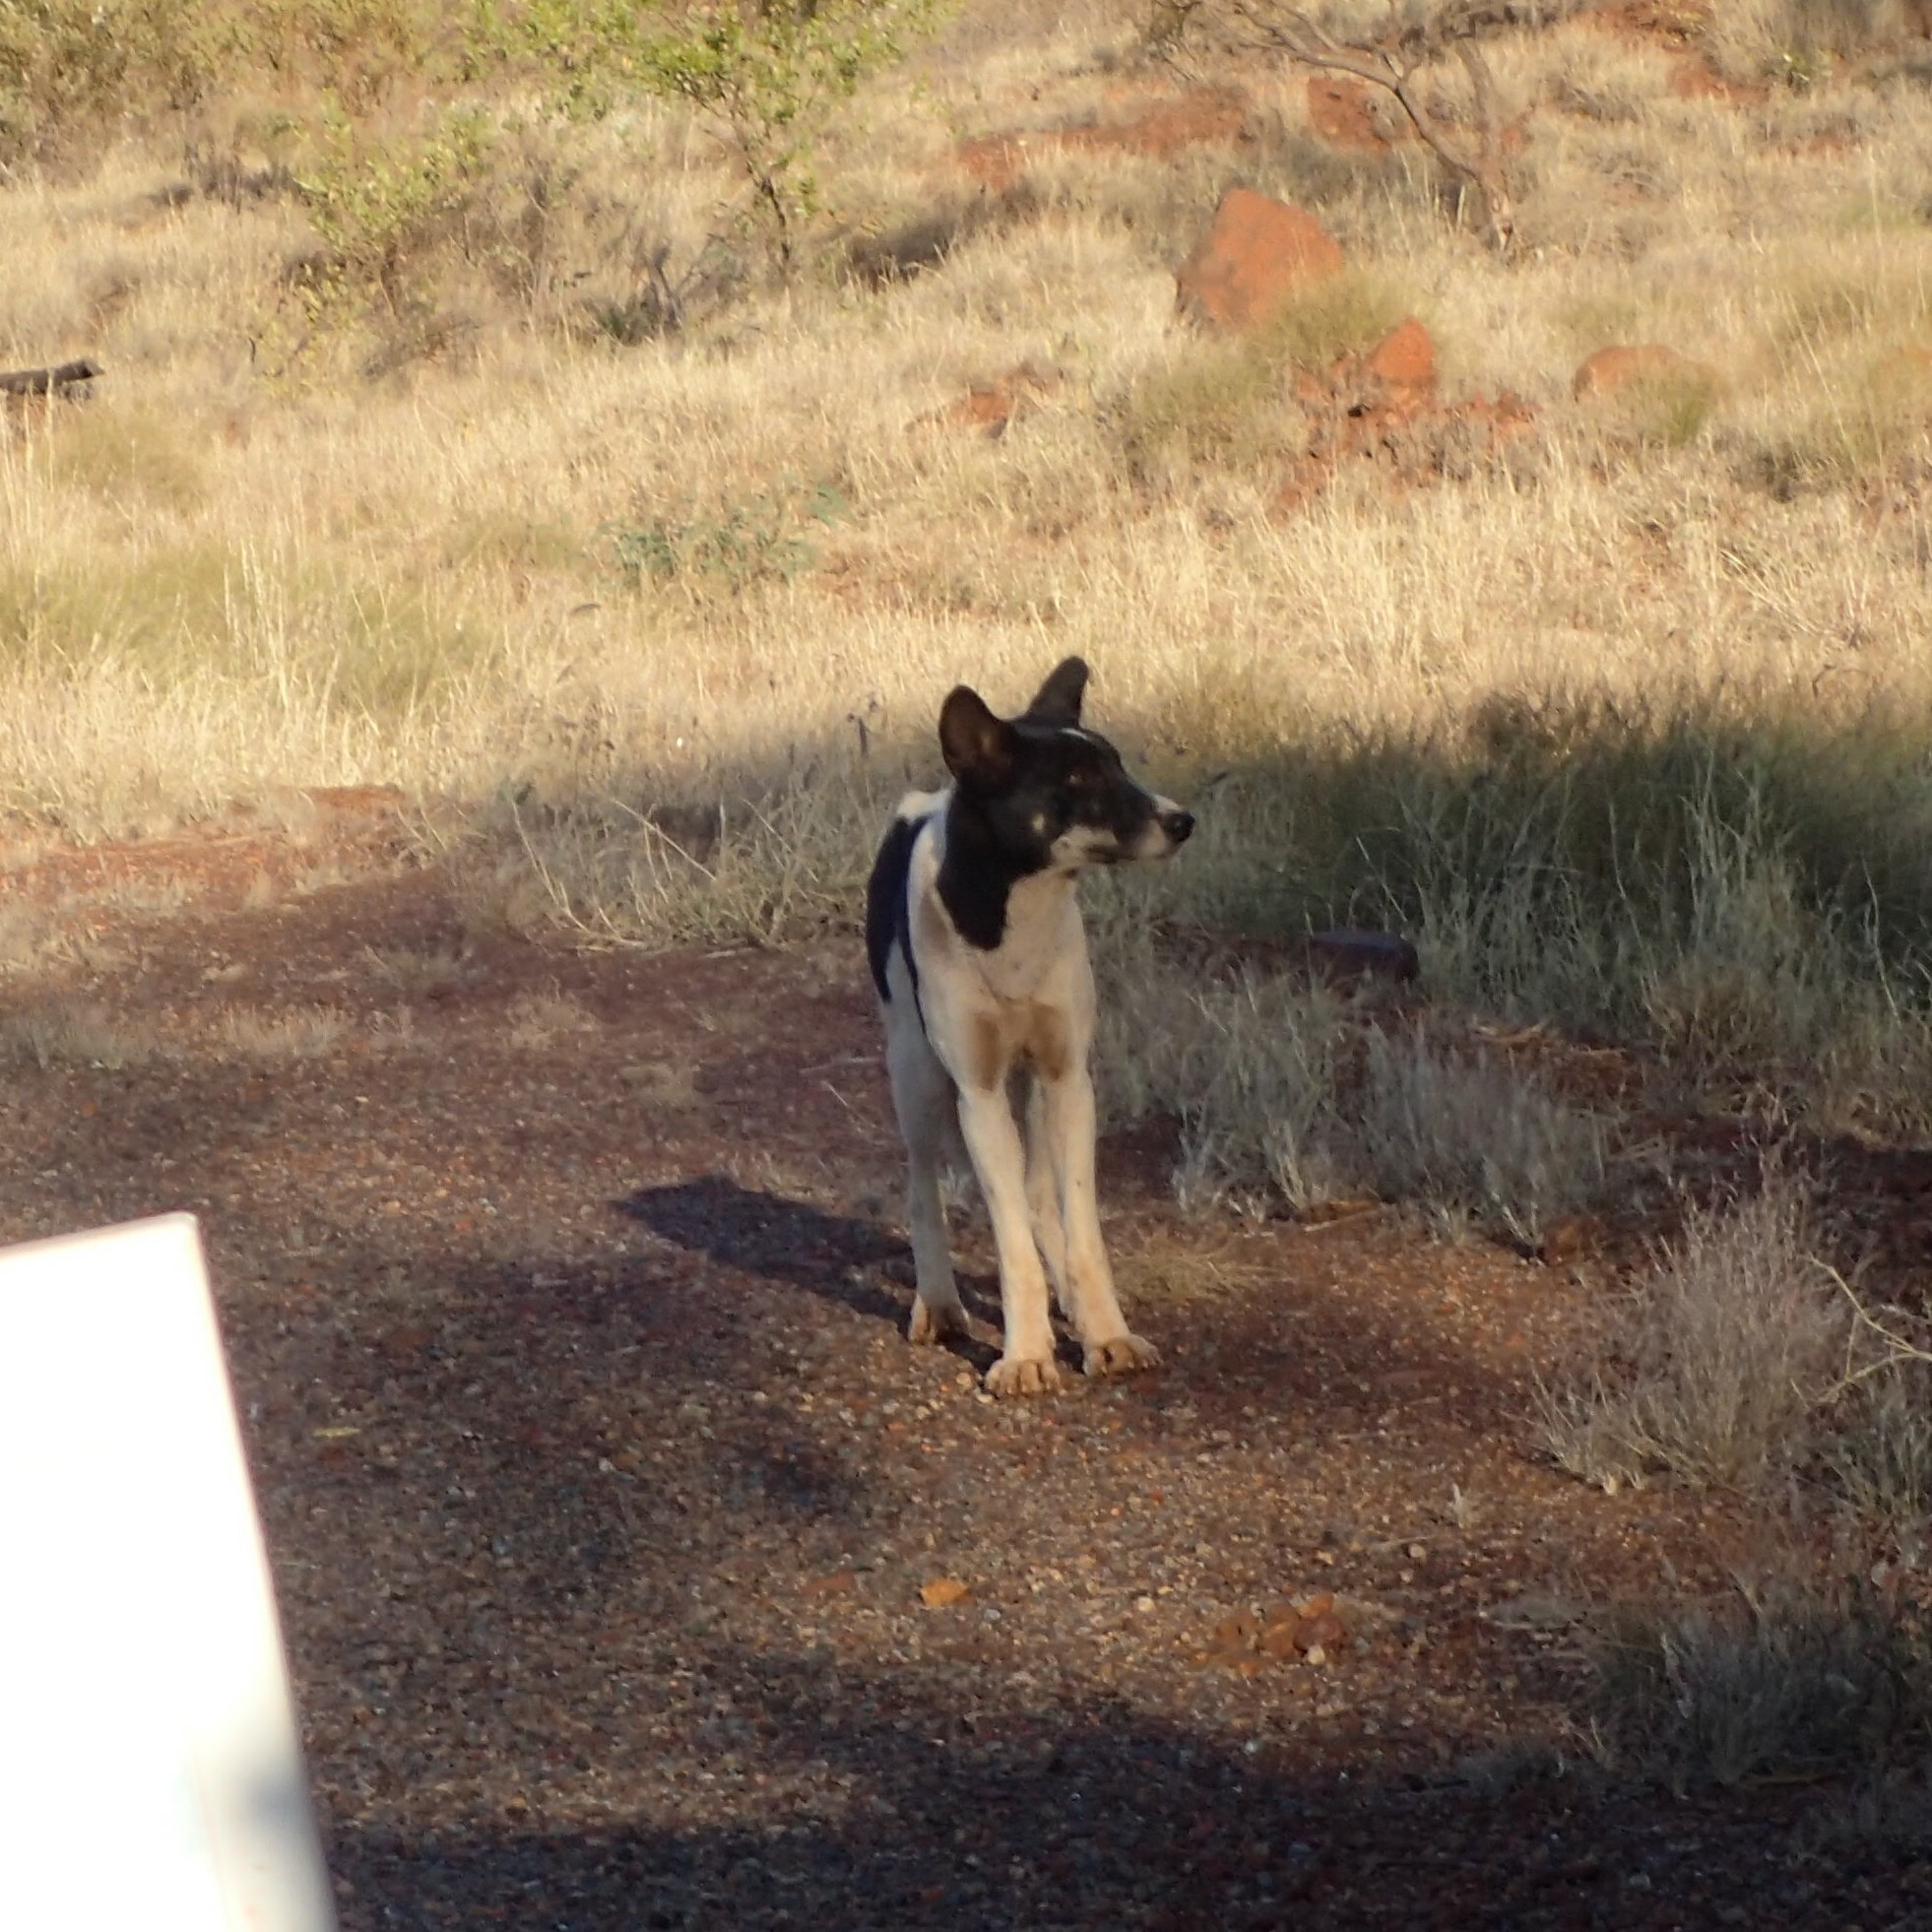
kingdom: Animalia
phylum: Chordata
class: Mammalia
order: Carnivora
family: Canidae
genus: Canis
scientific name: Canis lupus
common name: Gray wolf
